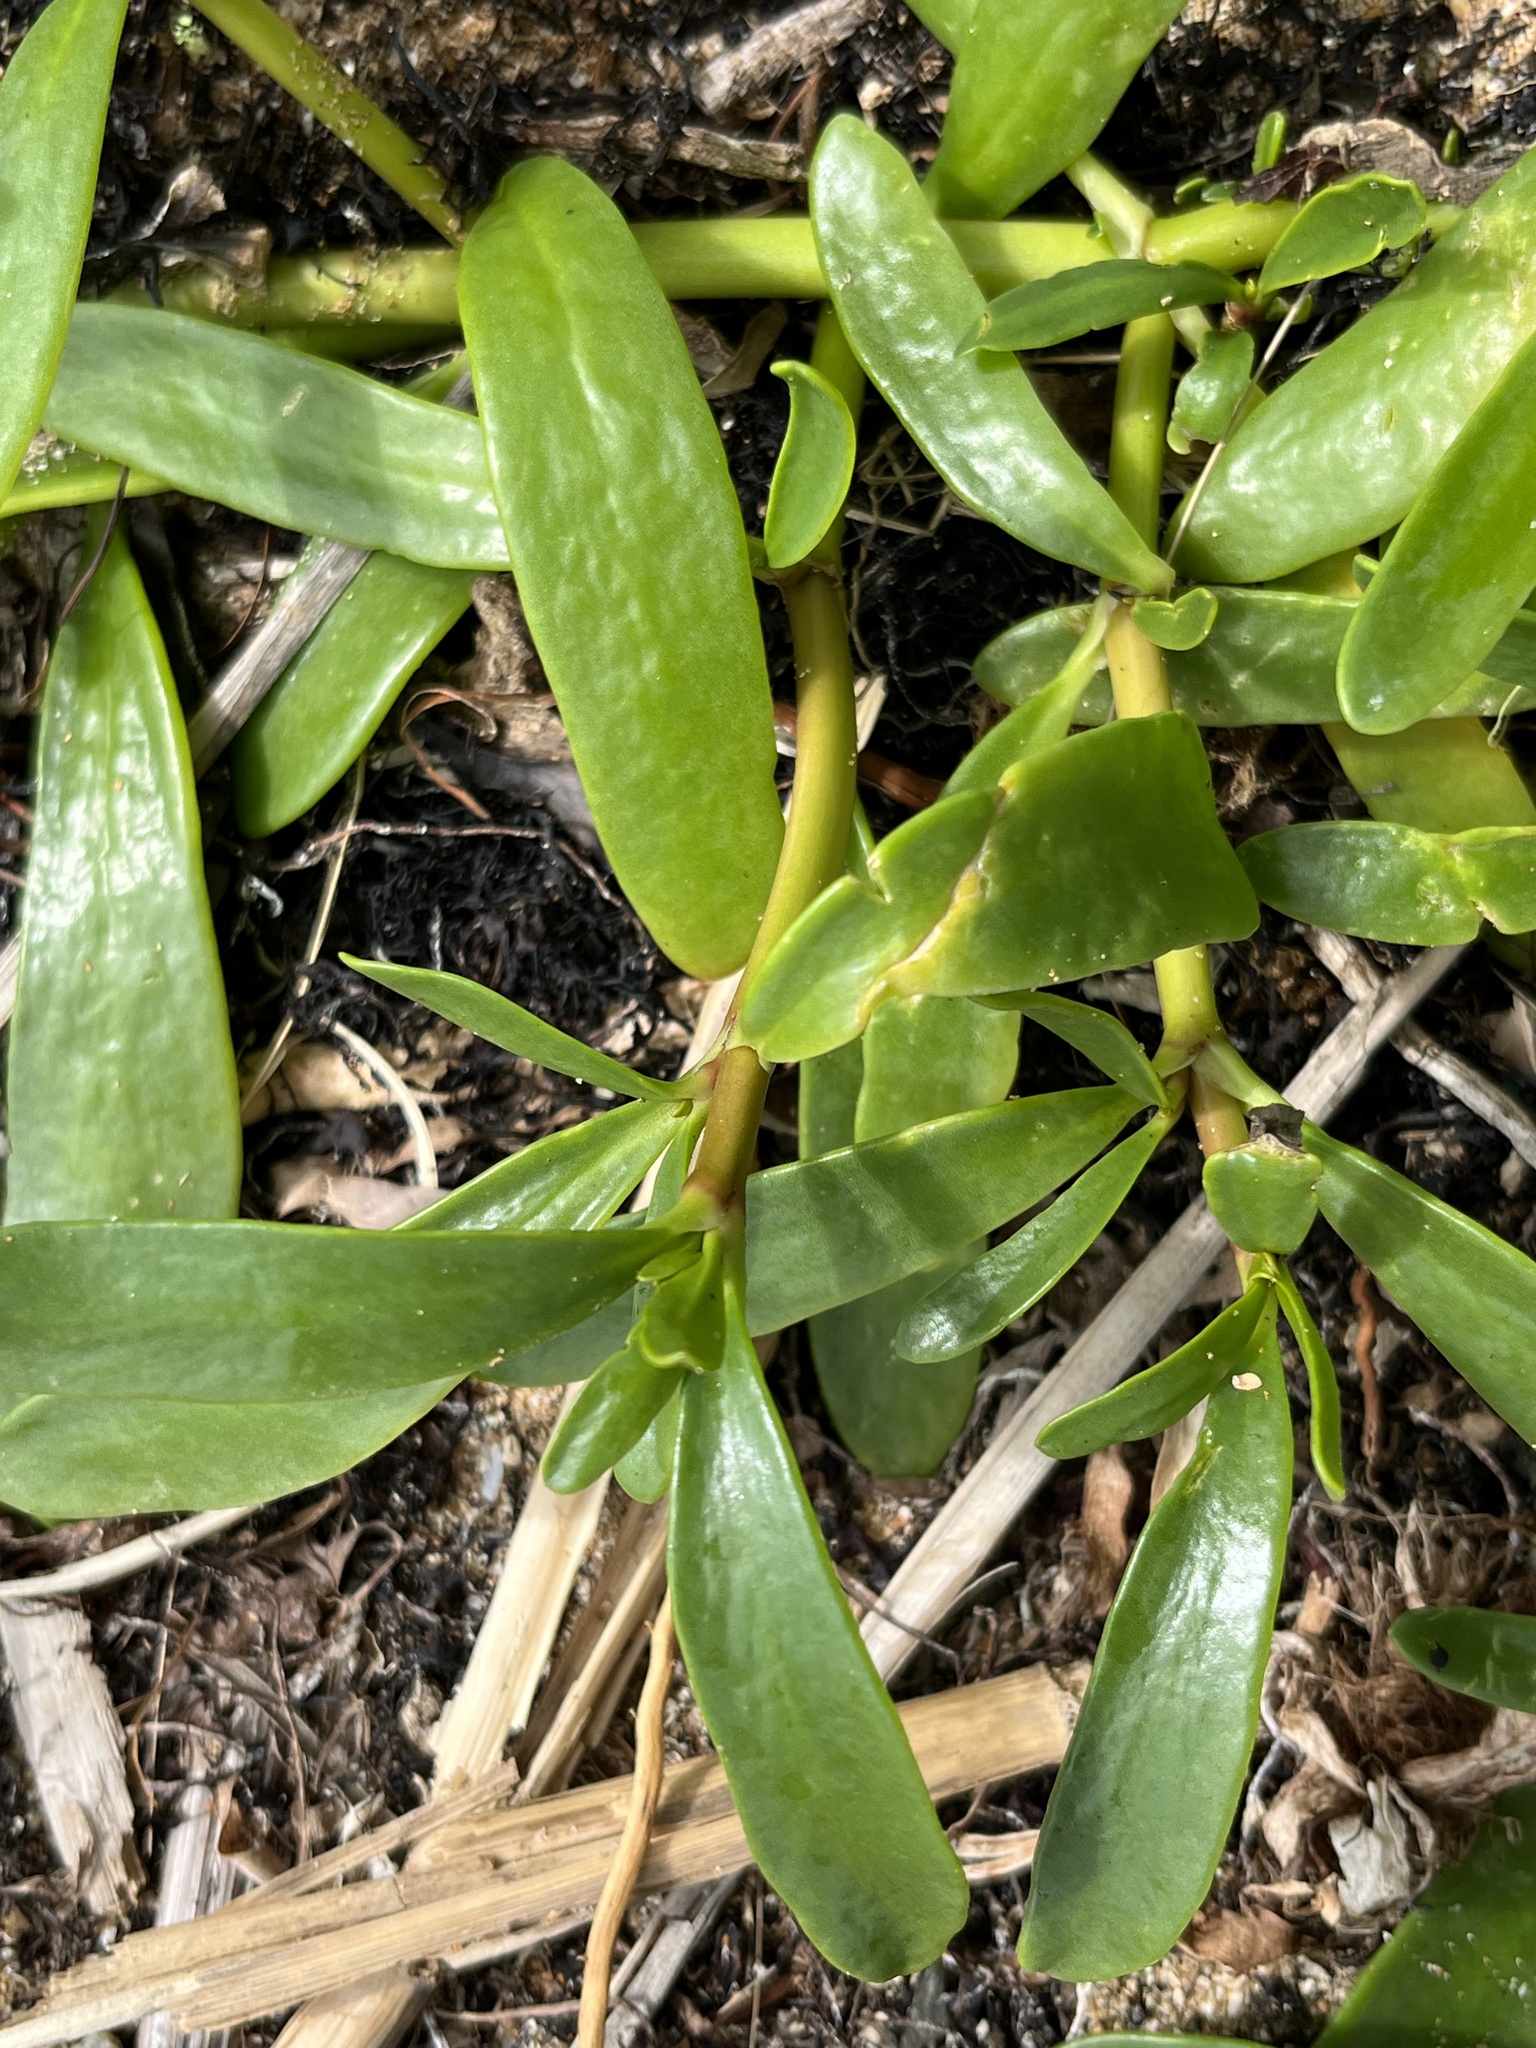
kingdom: Plantae
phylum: Tracheophyta
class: Magnoliopsida
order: Caryophyllales
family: Aizoaceae
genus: Sesuvium
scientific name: Sesuvium portulacastrum
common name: Sea-purslane
